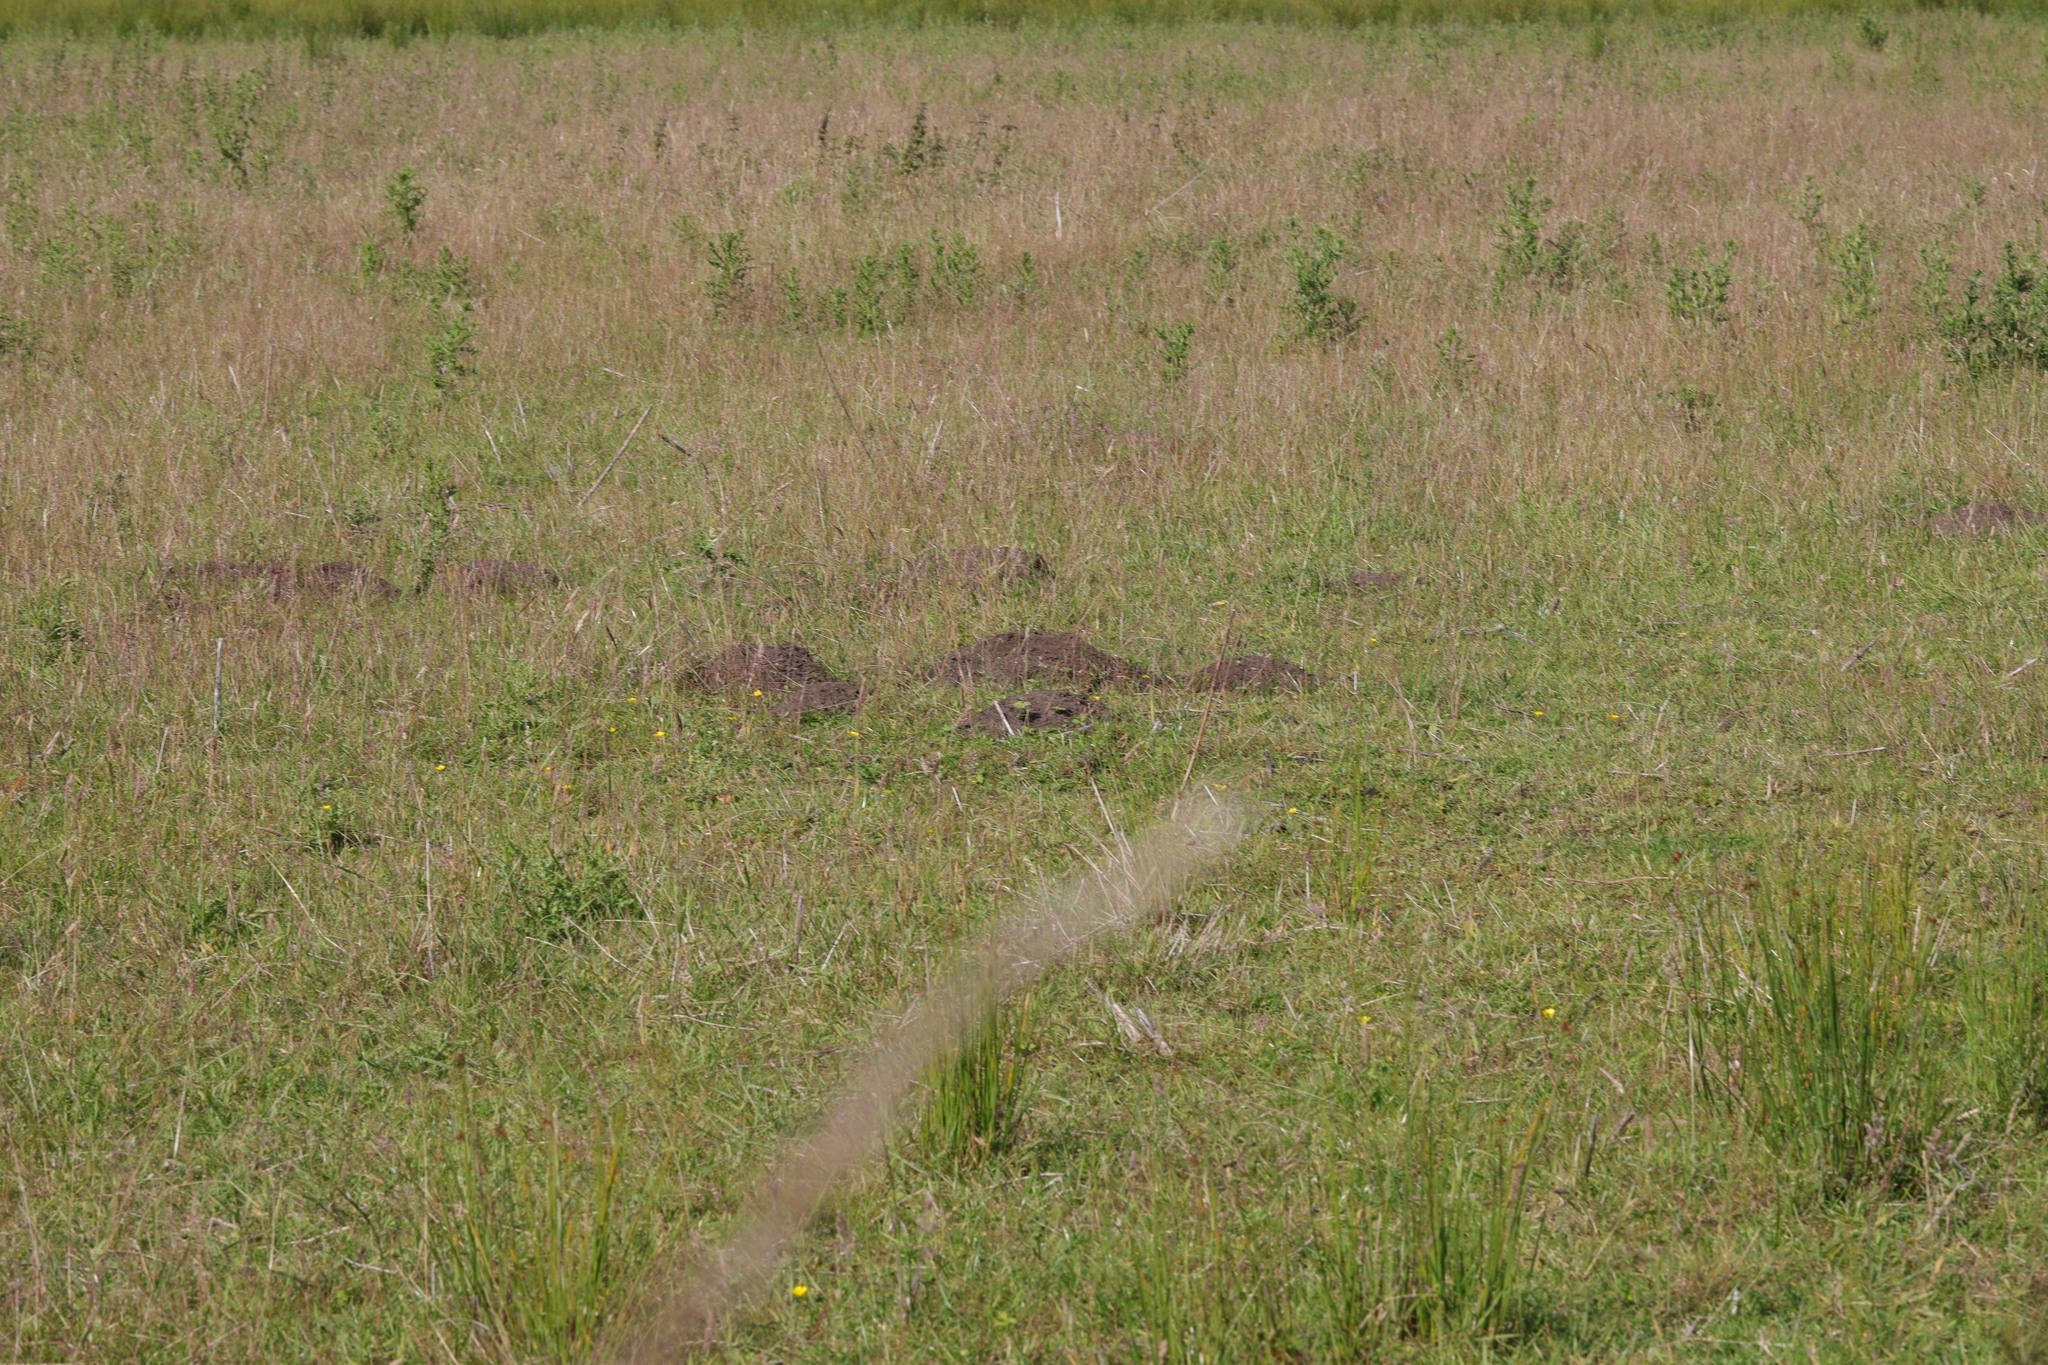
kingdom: Animalia
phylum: Chordata
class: Mammalia
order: Soricomorpha
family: Talpidae
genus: Talpa
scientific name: Talpa europaea
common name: European mole
